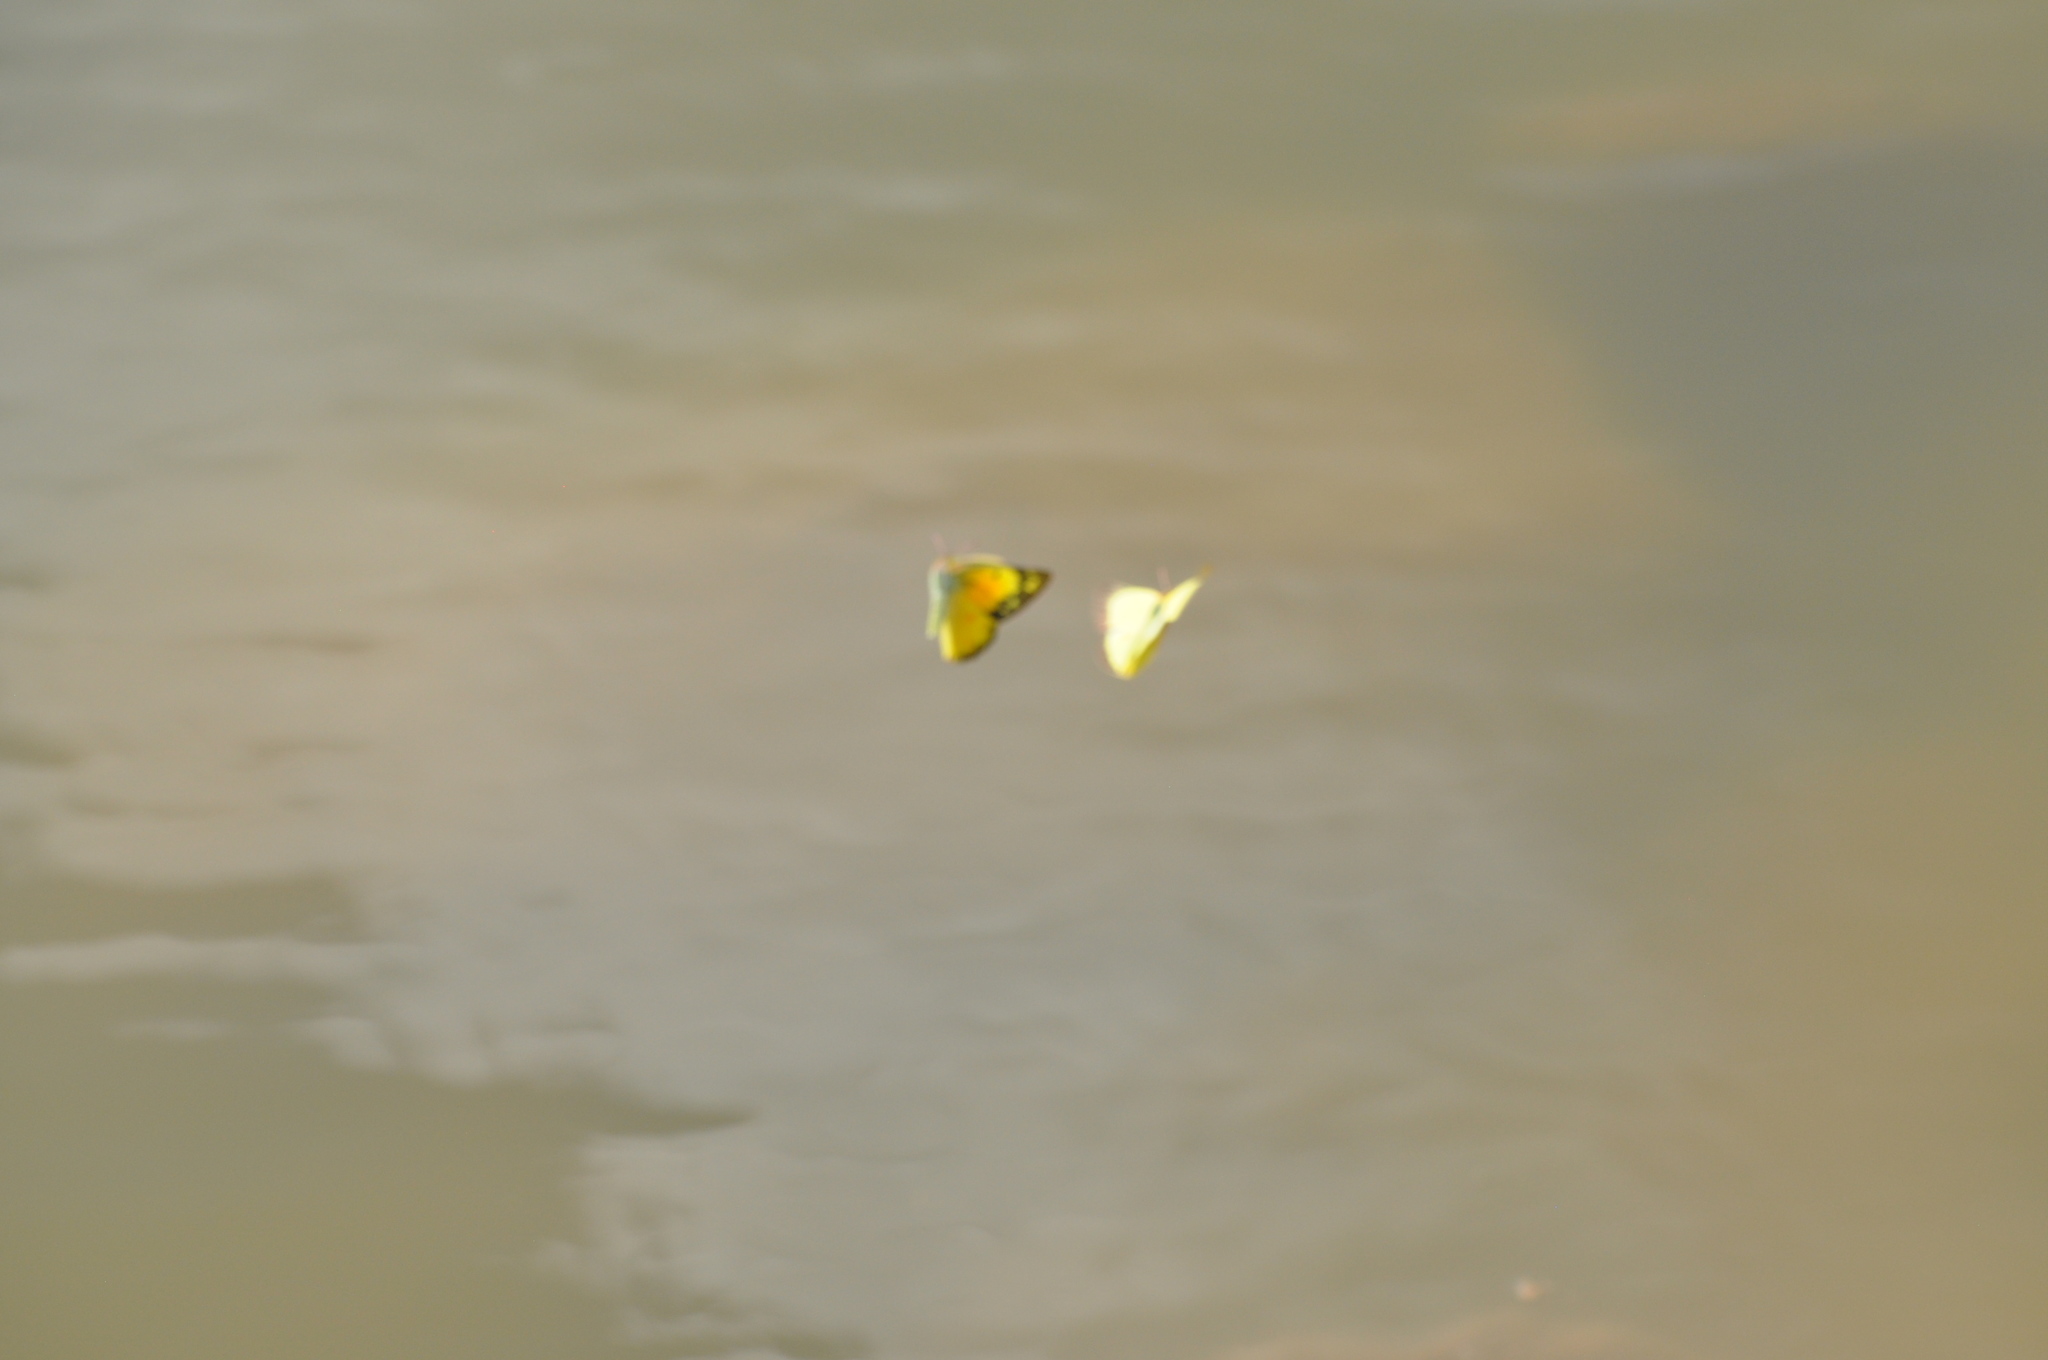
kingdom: Animalia
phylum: Arthropoda
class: Insecta
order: Lepidoptera
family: Pieridae
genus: Colias
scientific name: Colias eurytheme
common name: Alfalfa butterfly
